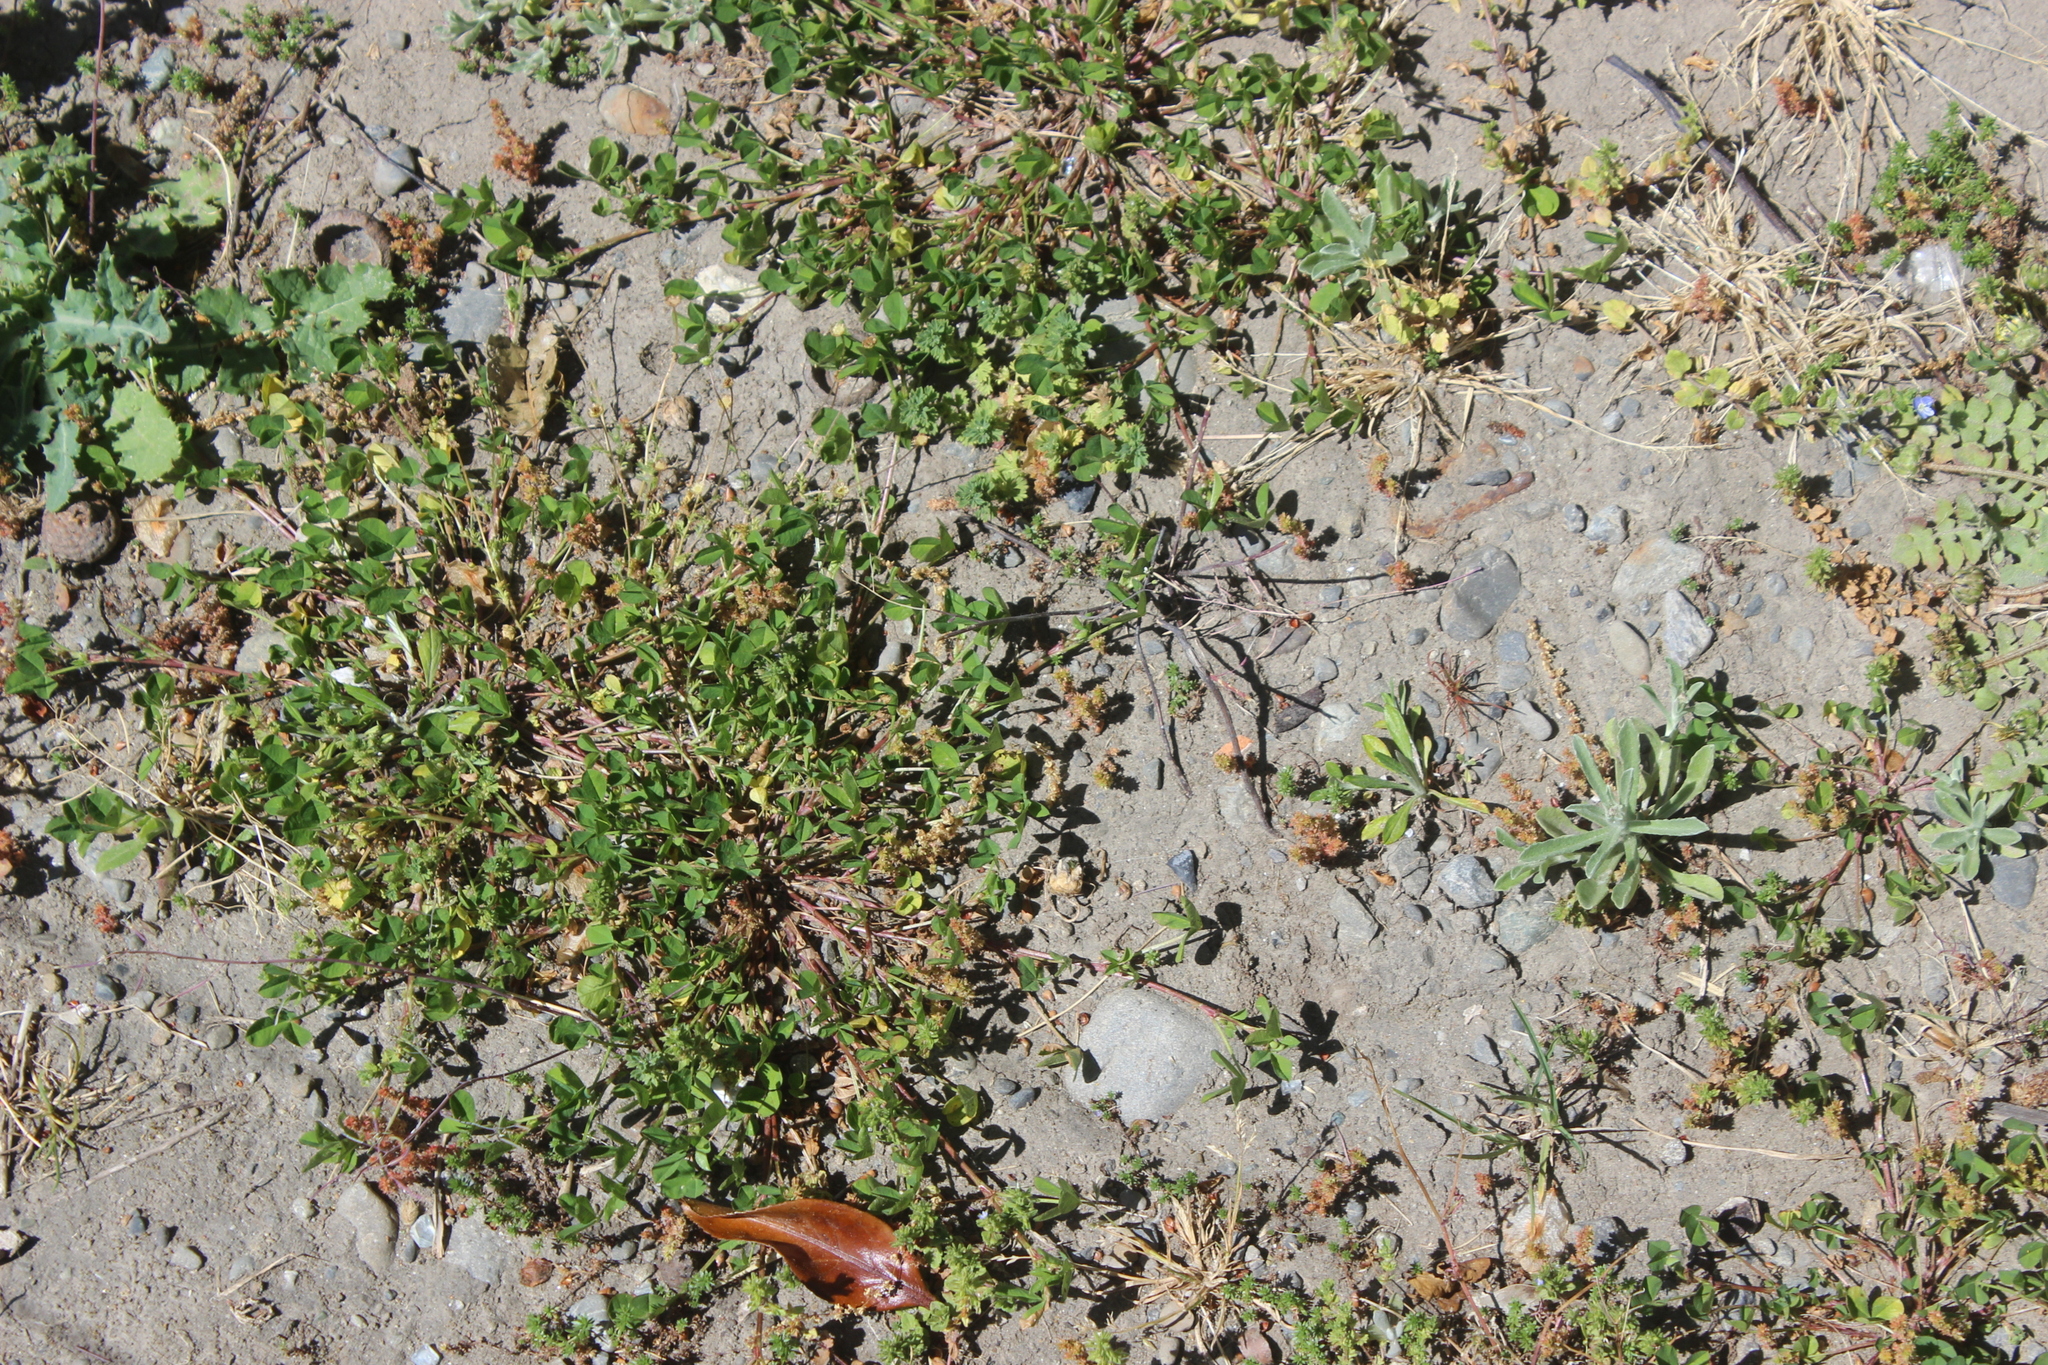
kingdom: Plantae
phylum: Tracheophyta
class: Magnoliopsida
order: Fabales
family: Fabaceae
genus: Trifolium
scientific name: Trifolium glomeratum
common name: Clustered clover
